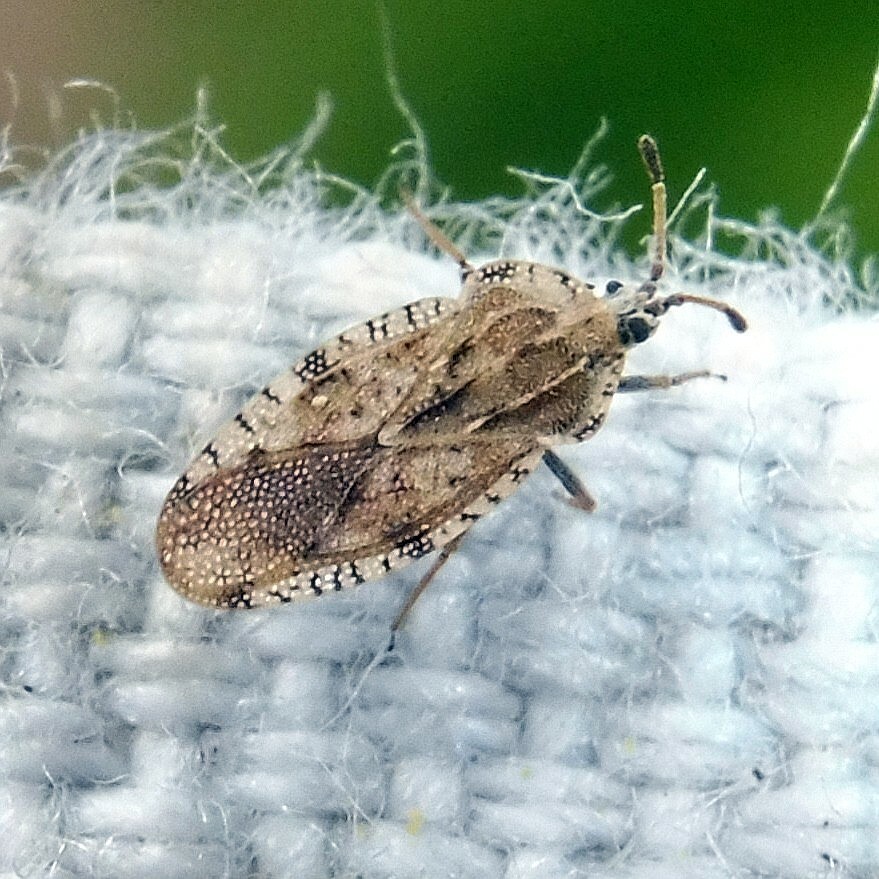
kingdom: Animalia
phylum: Arthropoda
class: Insecta
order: Hemiptera
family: Tingidae
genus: Tingis
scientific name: Tingis cardui
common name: Spear thistle lacebug
